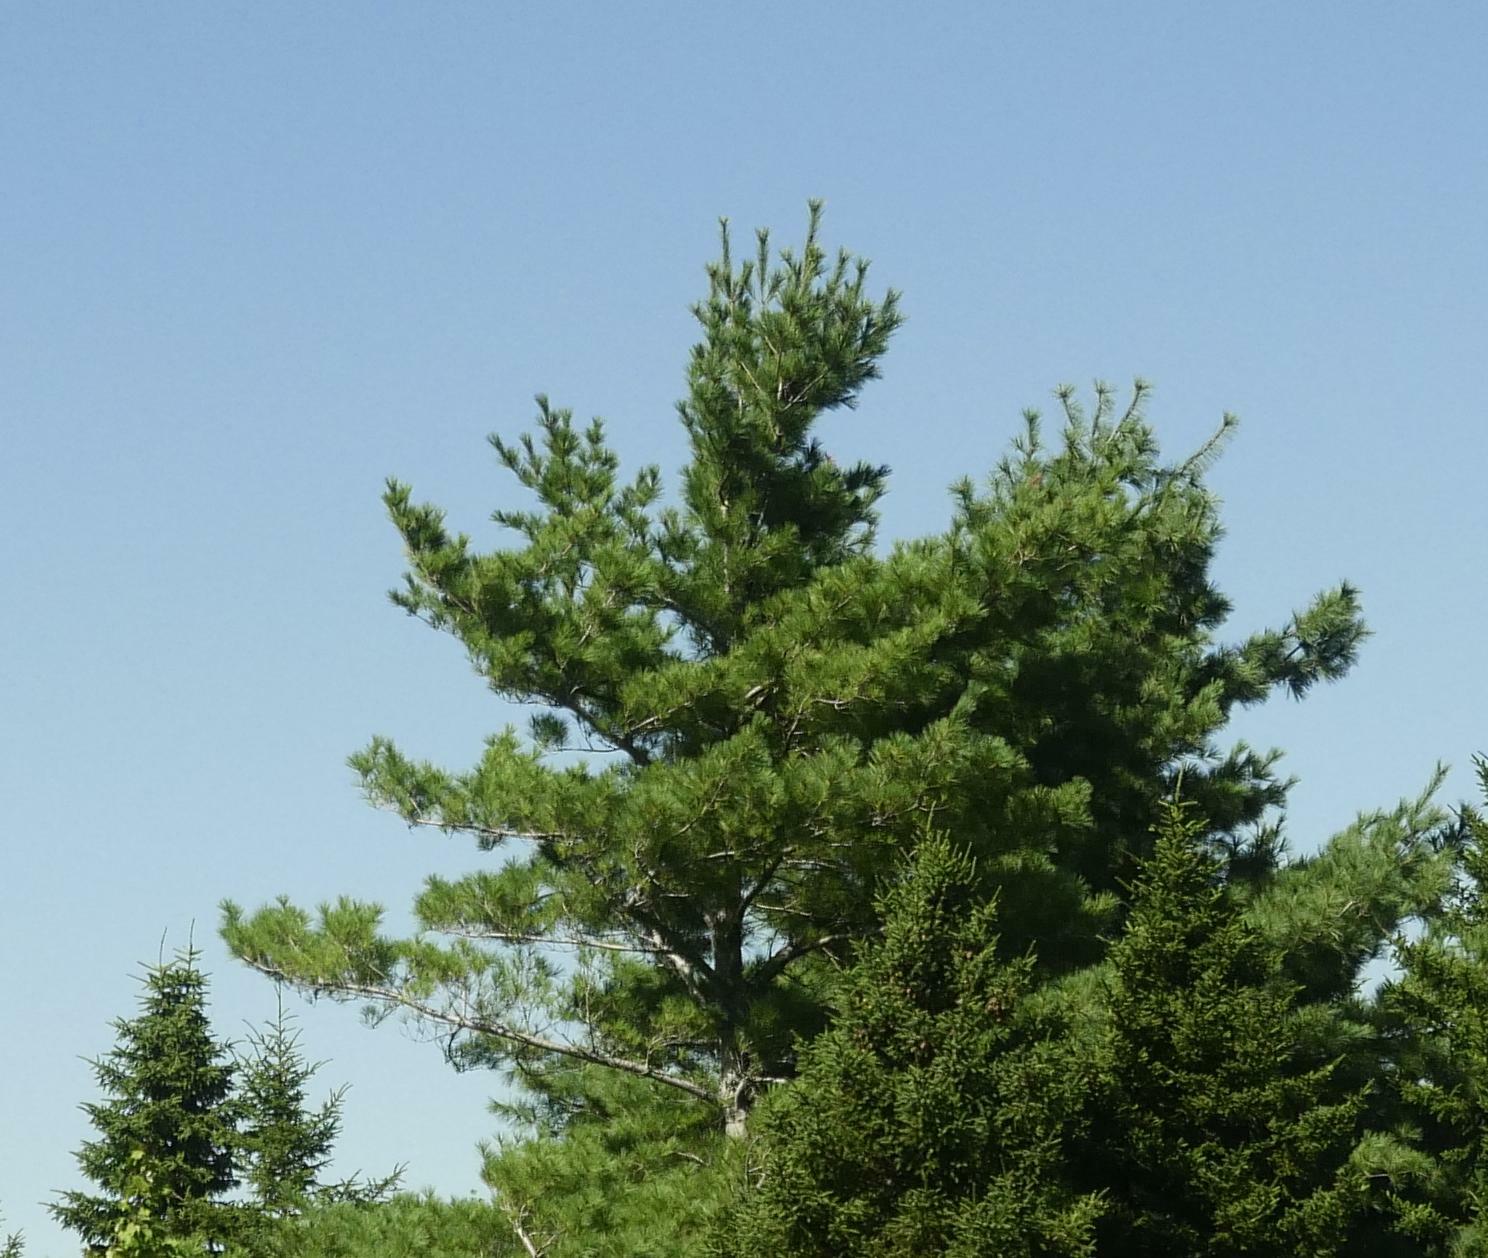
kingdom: Plantae
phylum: Tracheophyta
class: Pinopsida
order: Pinales
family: Pinaceae
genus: Pinus
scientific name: Pinus strobus
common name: Weymouth pine
